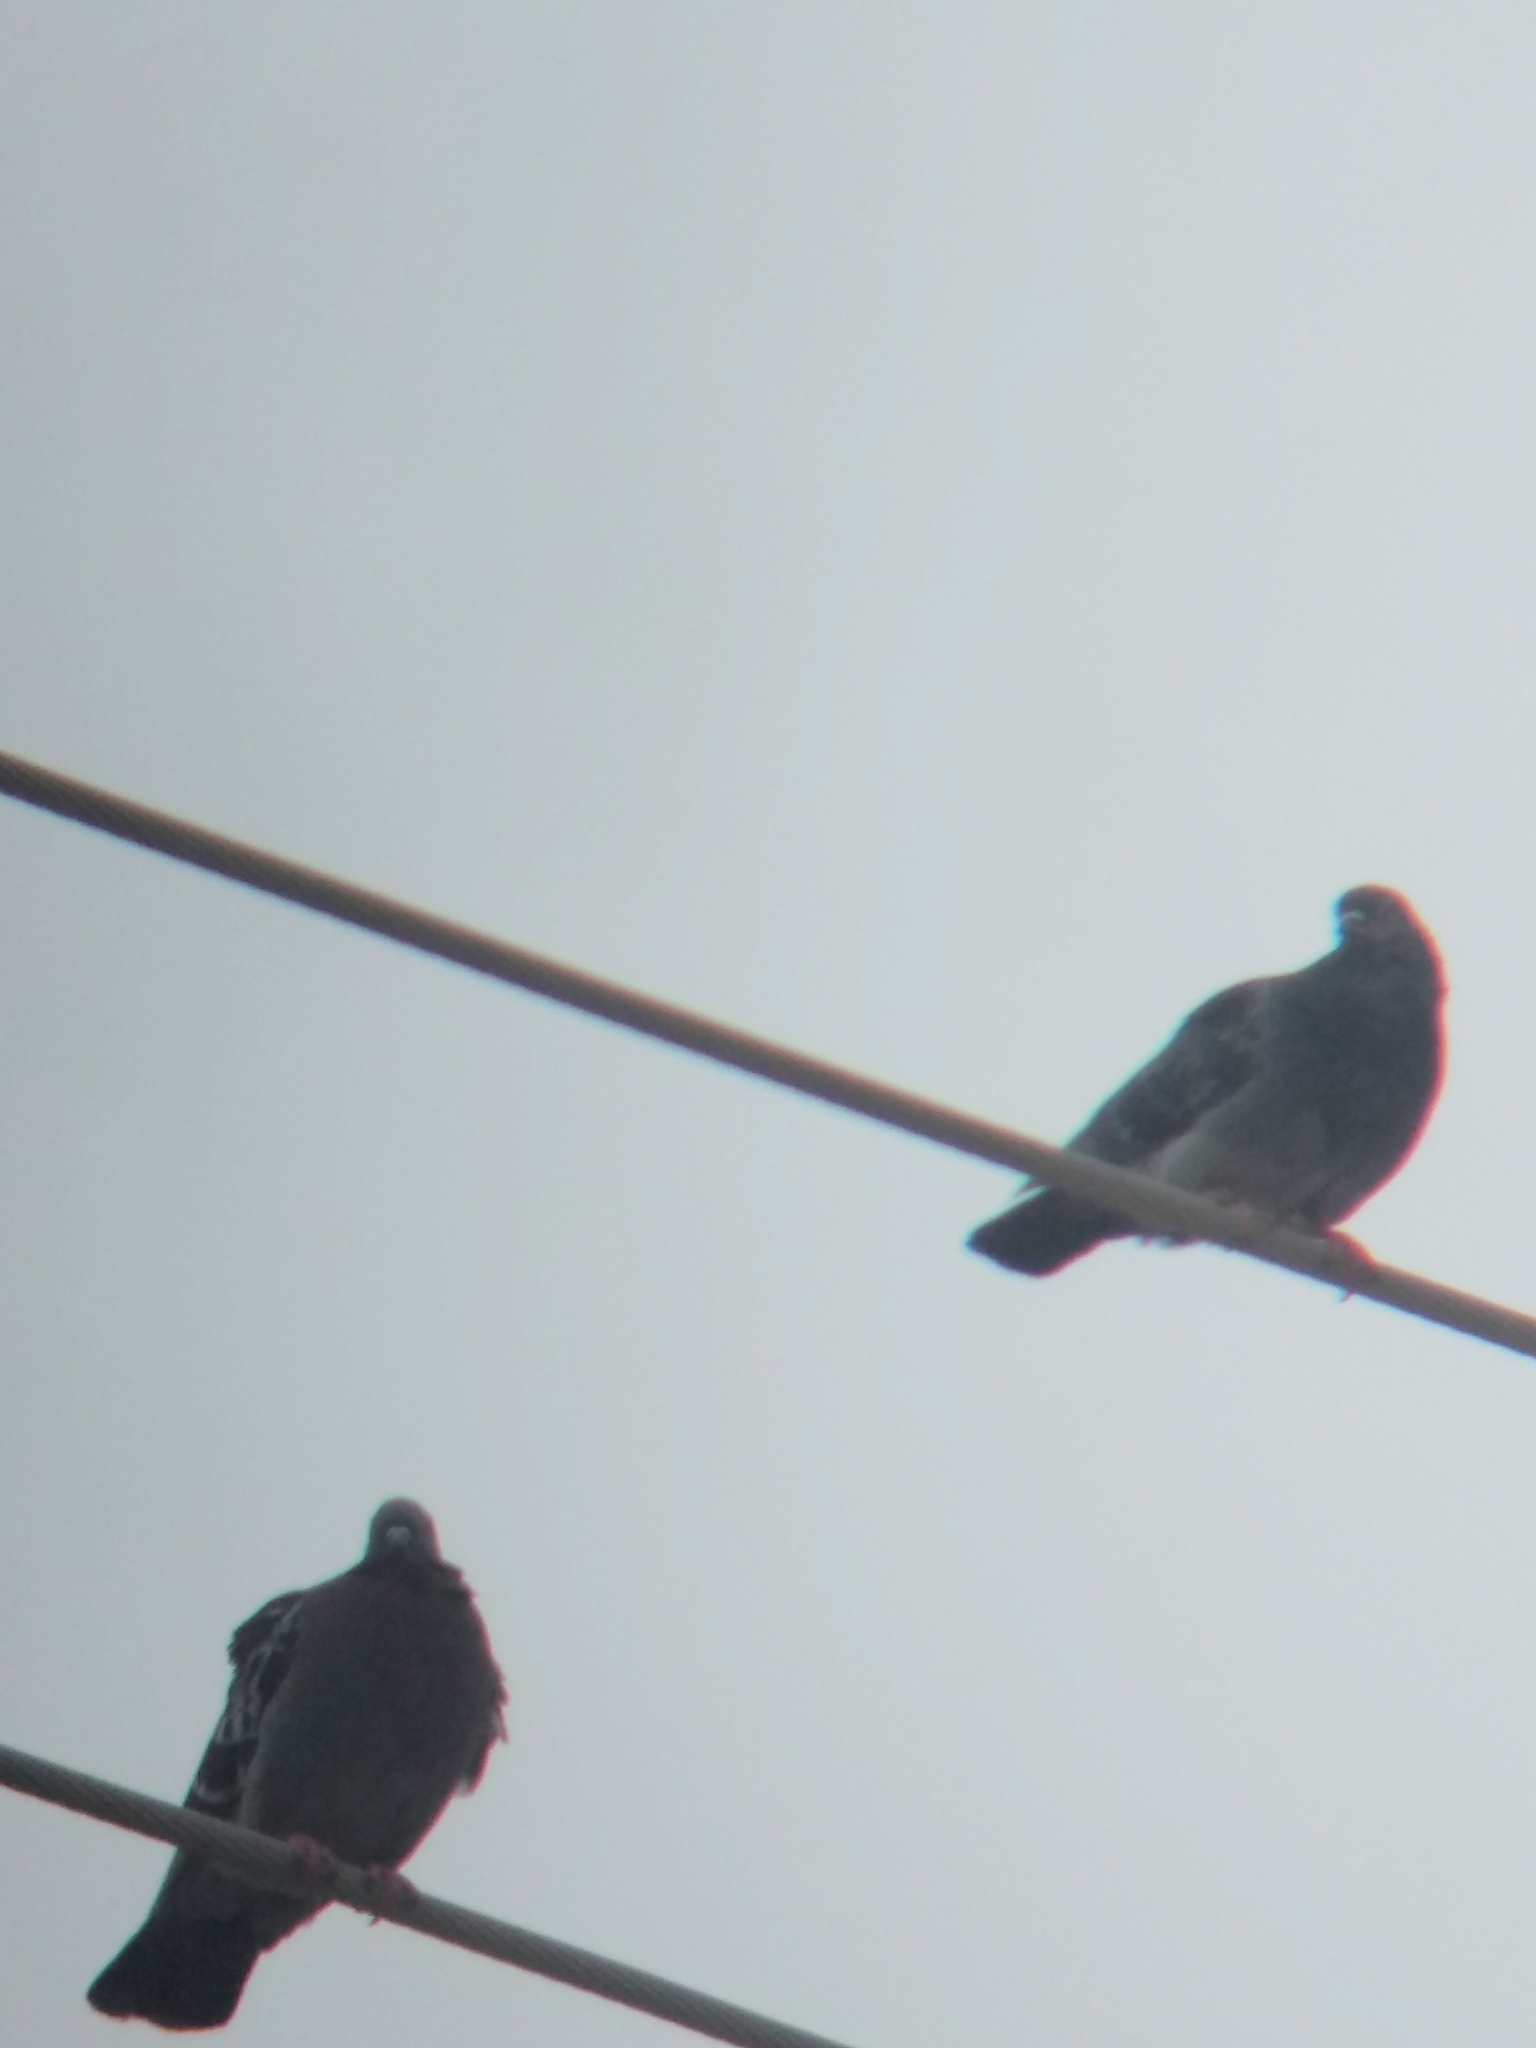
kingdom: Animalia
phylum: Chordata
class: Aves
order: Columbiformes
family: Columbidae
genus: Columba
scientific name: Columba livia
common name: Rock pigeon
